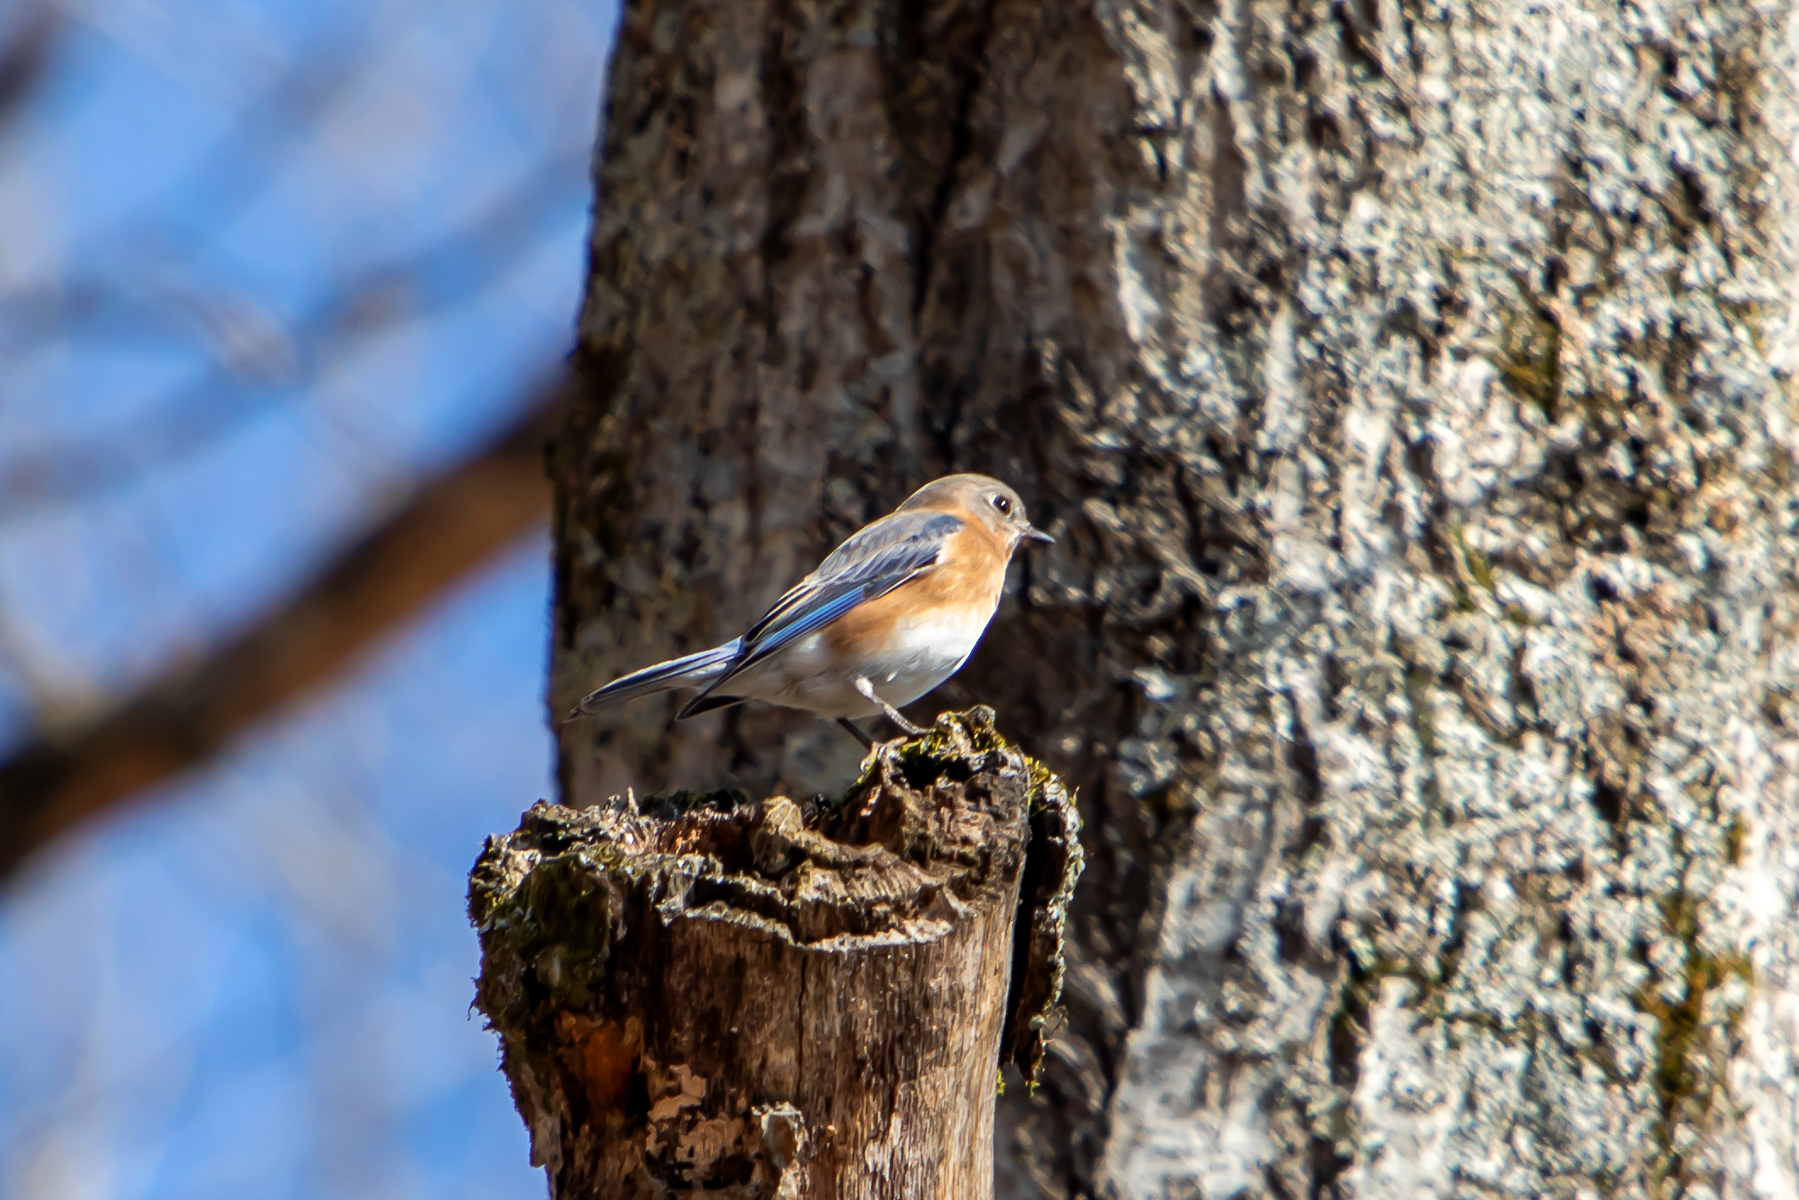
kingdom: Animalia
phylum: Chordata
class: Aves
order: Passeriformes
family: Turdidae
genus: Sialia
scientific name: Sialia sialis
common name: Eastern bluebird
